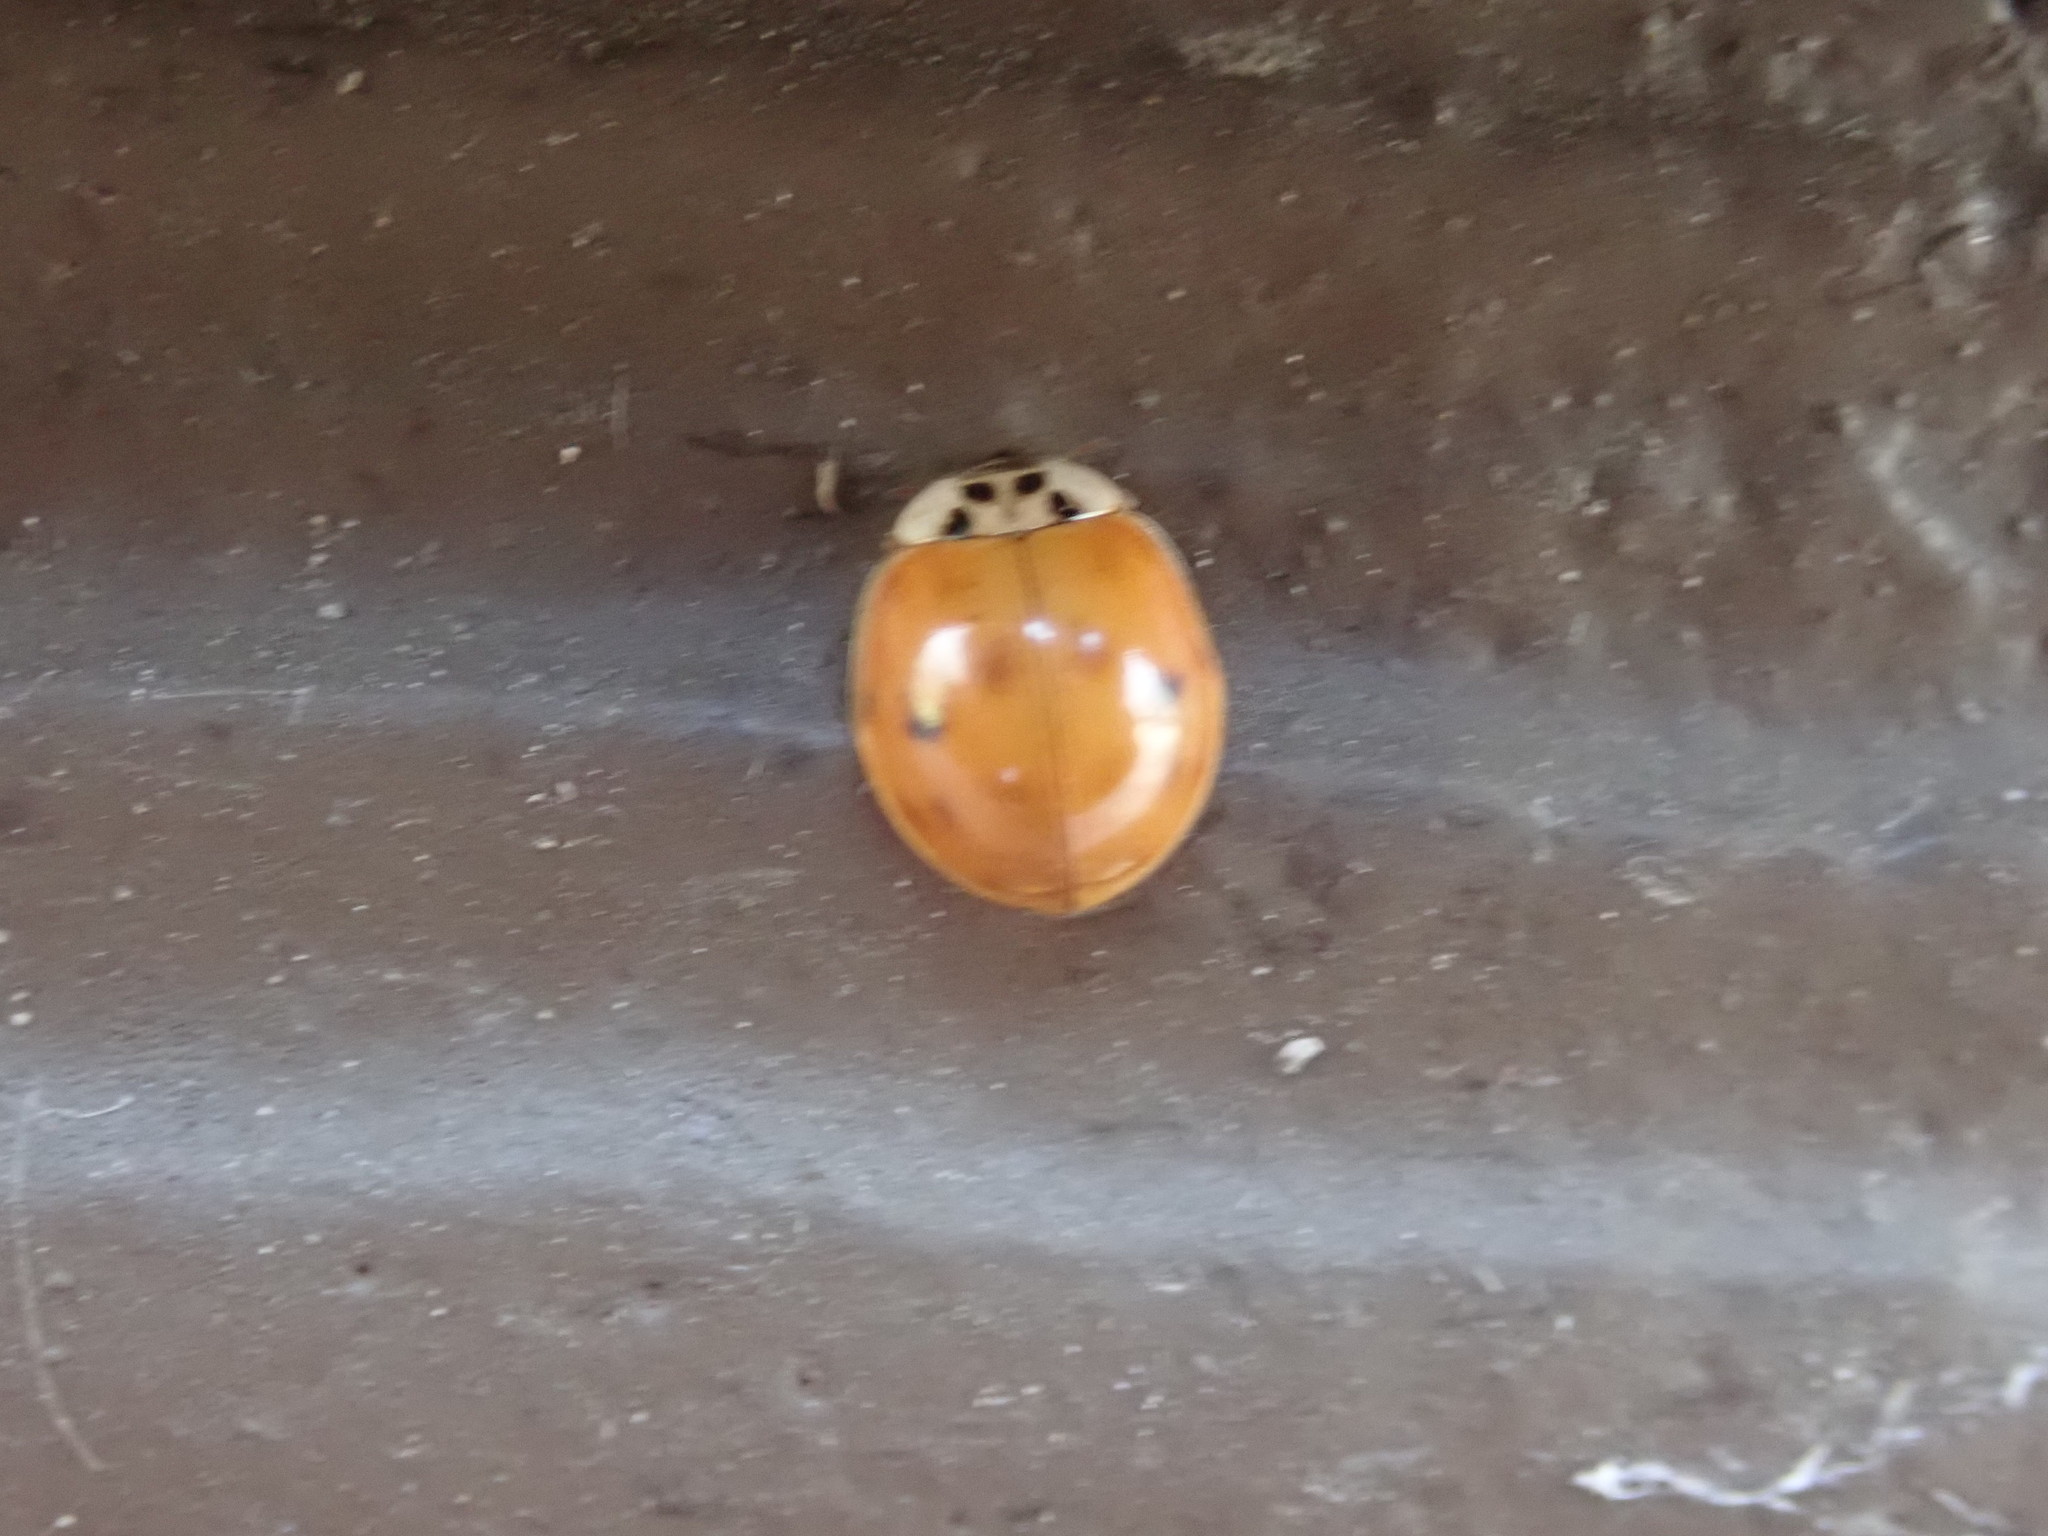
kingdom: Animalia
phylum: Arthropoda
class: Insecta
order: Coleoptera
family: Coccinellidae
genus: Harmonia
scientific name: Harmonia axyridis
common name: Harlequin ladybird
